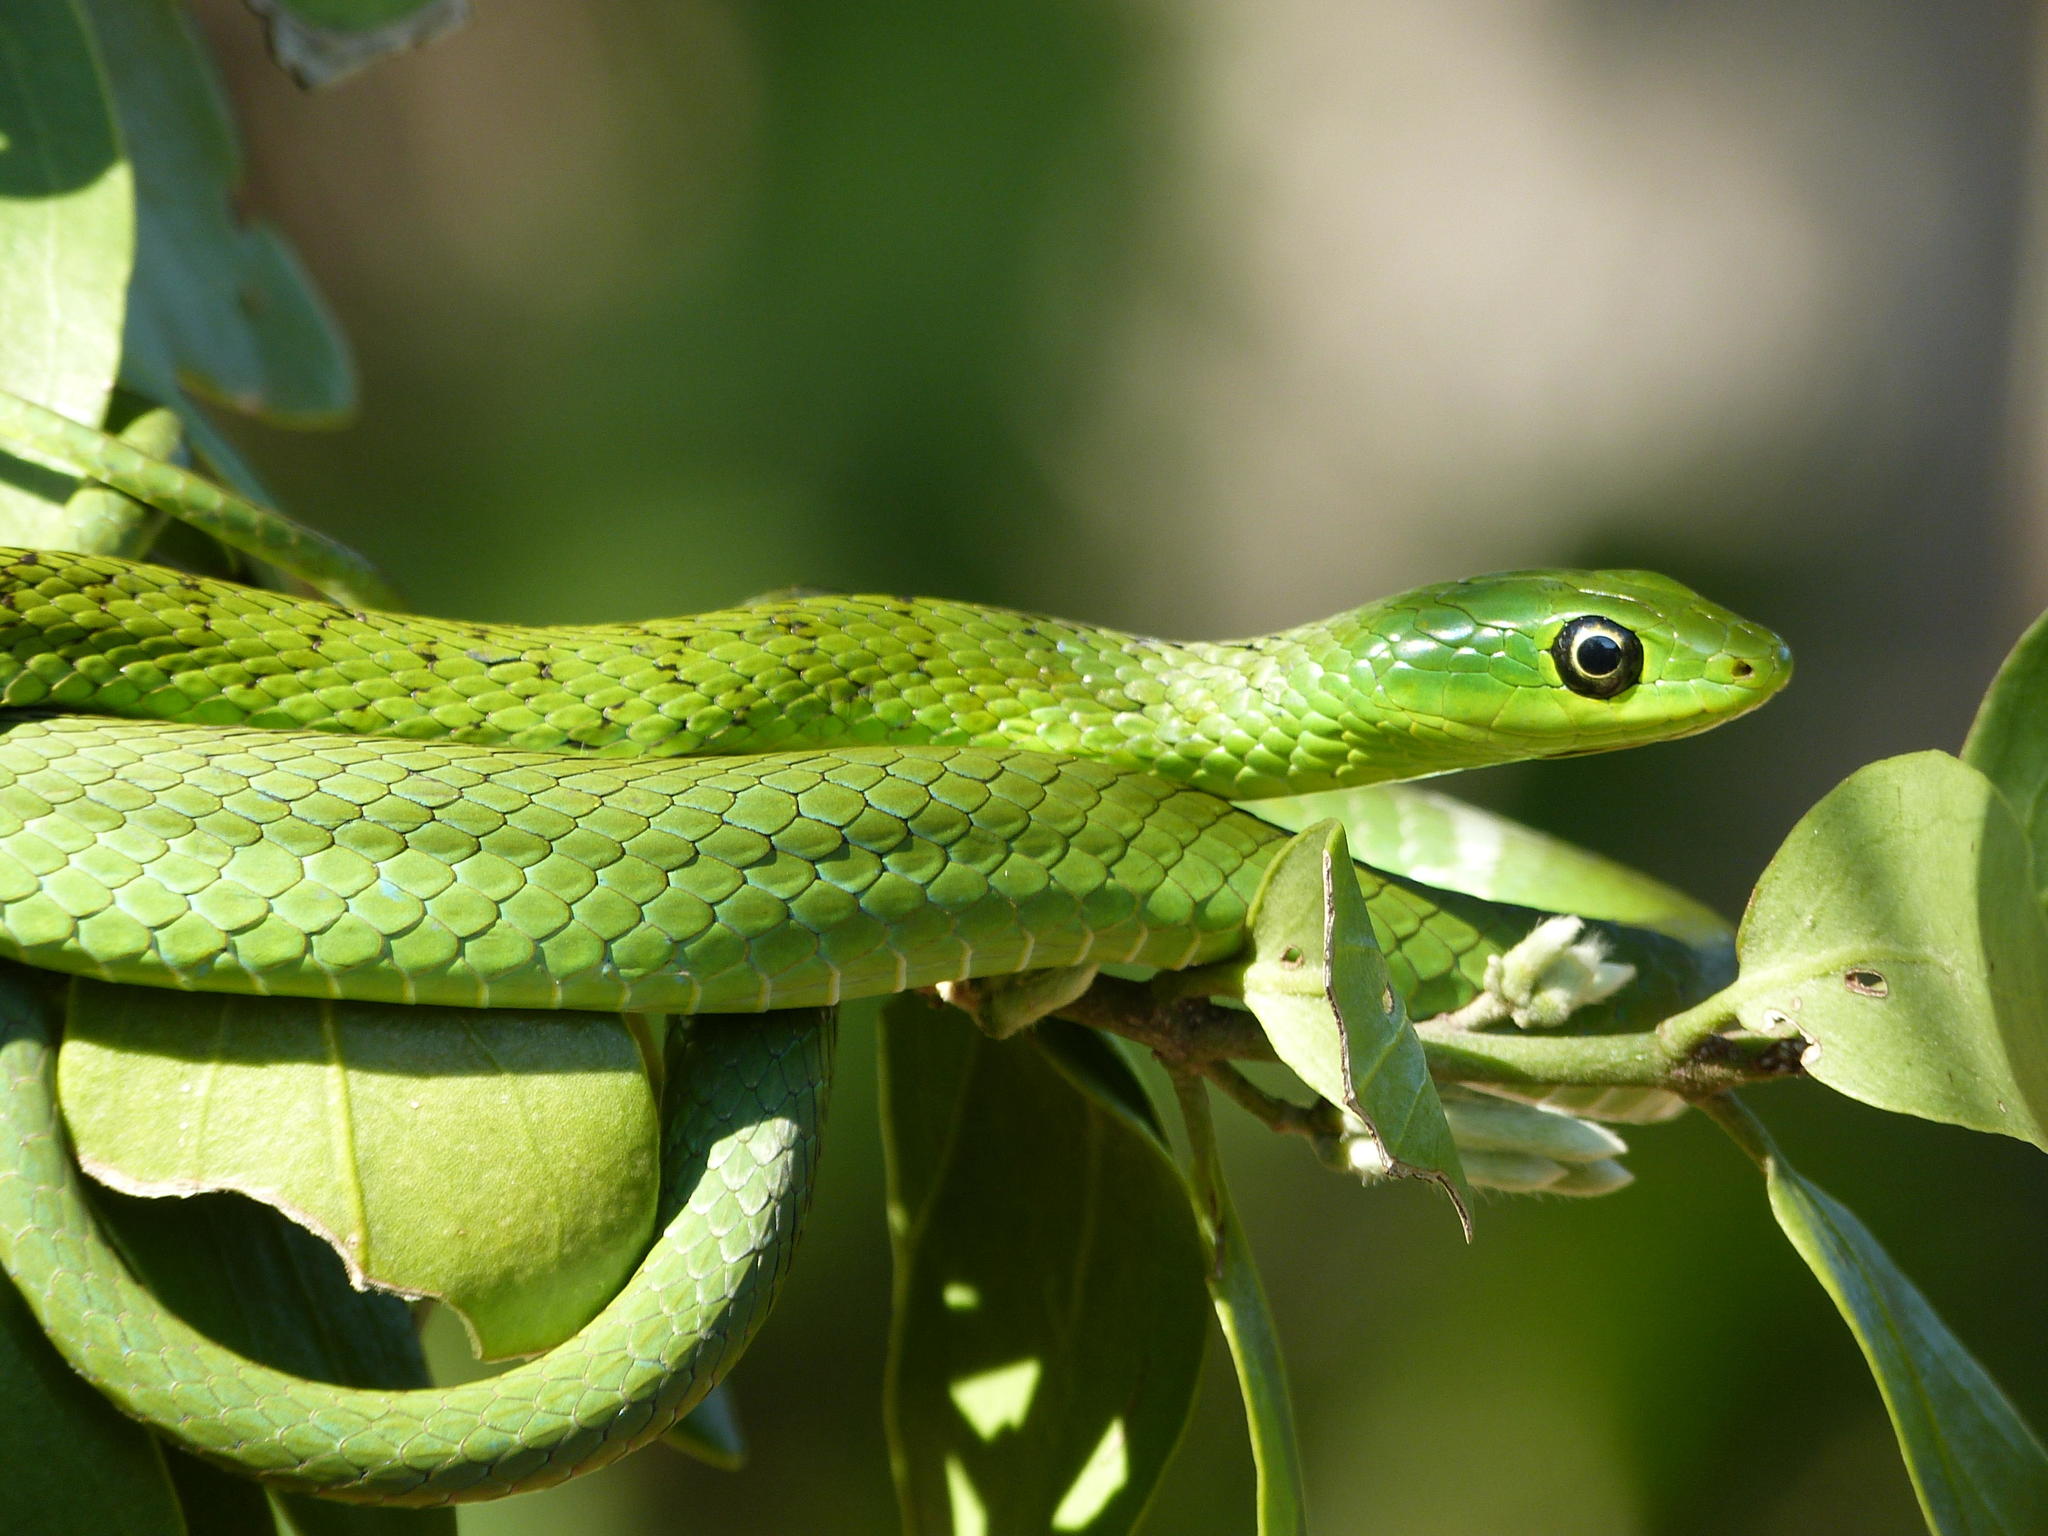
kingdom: Animalia
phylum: Chordata
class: Squamata
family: Colubridae
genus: Philothamnus
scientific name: Philothamnus natalensis
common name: Eastern natal green snake
